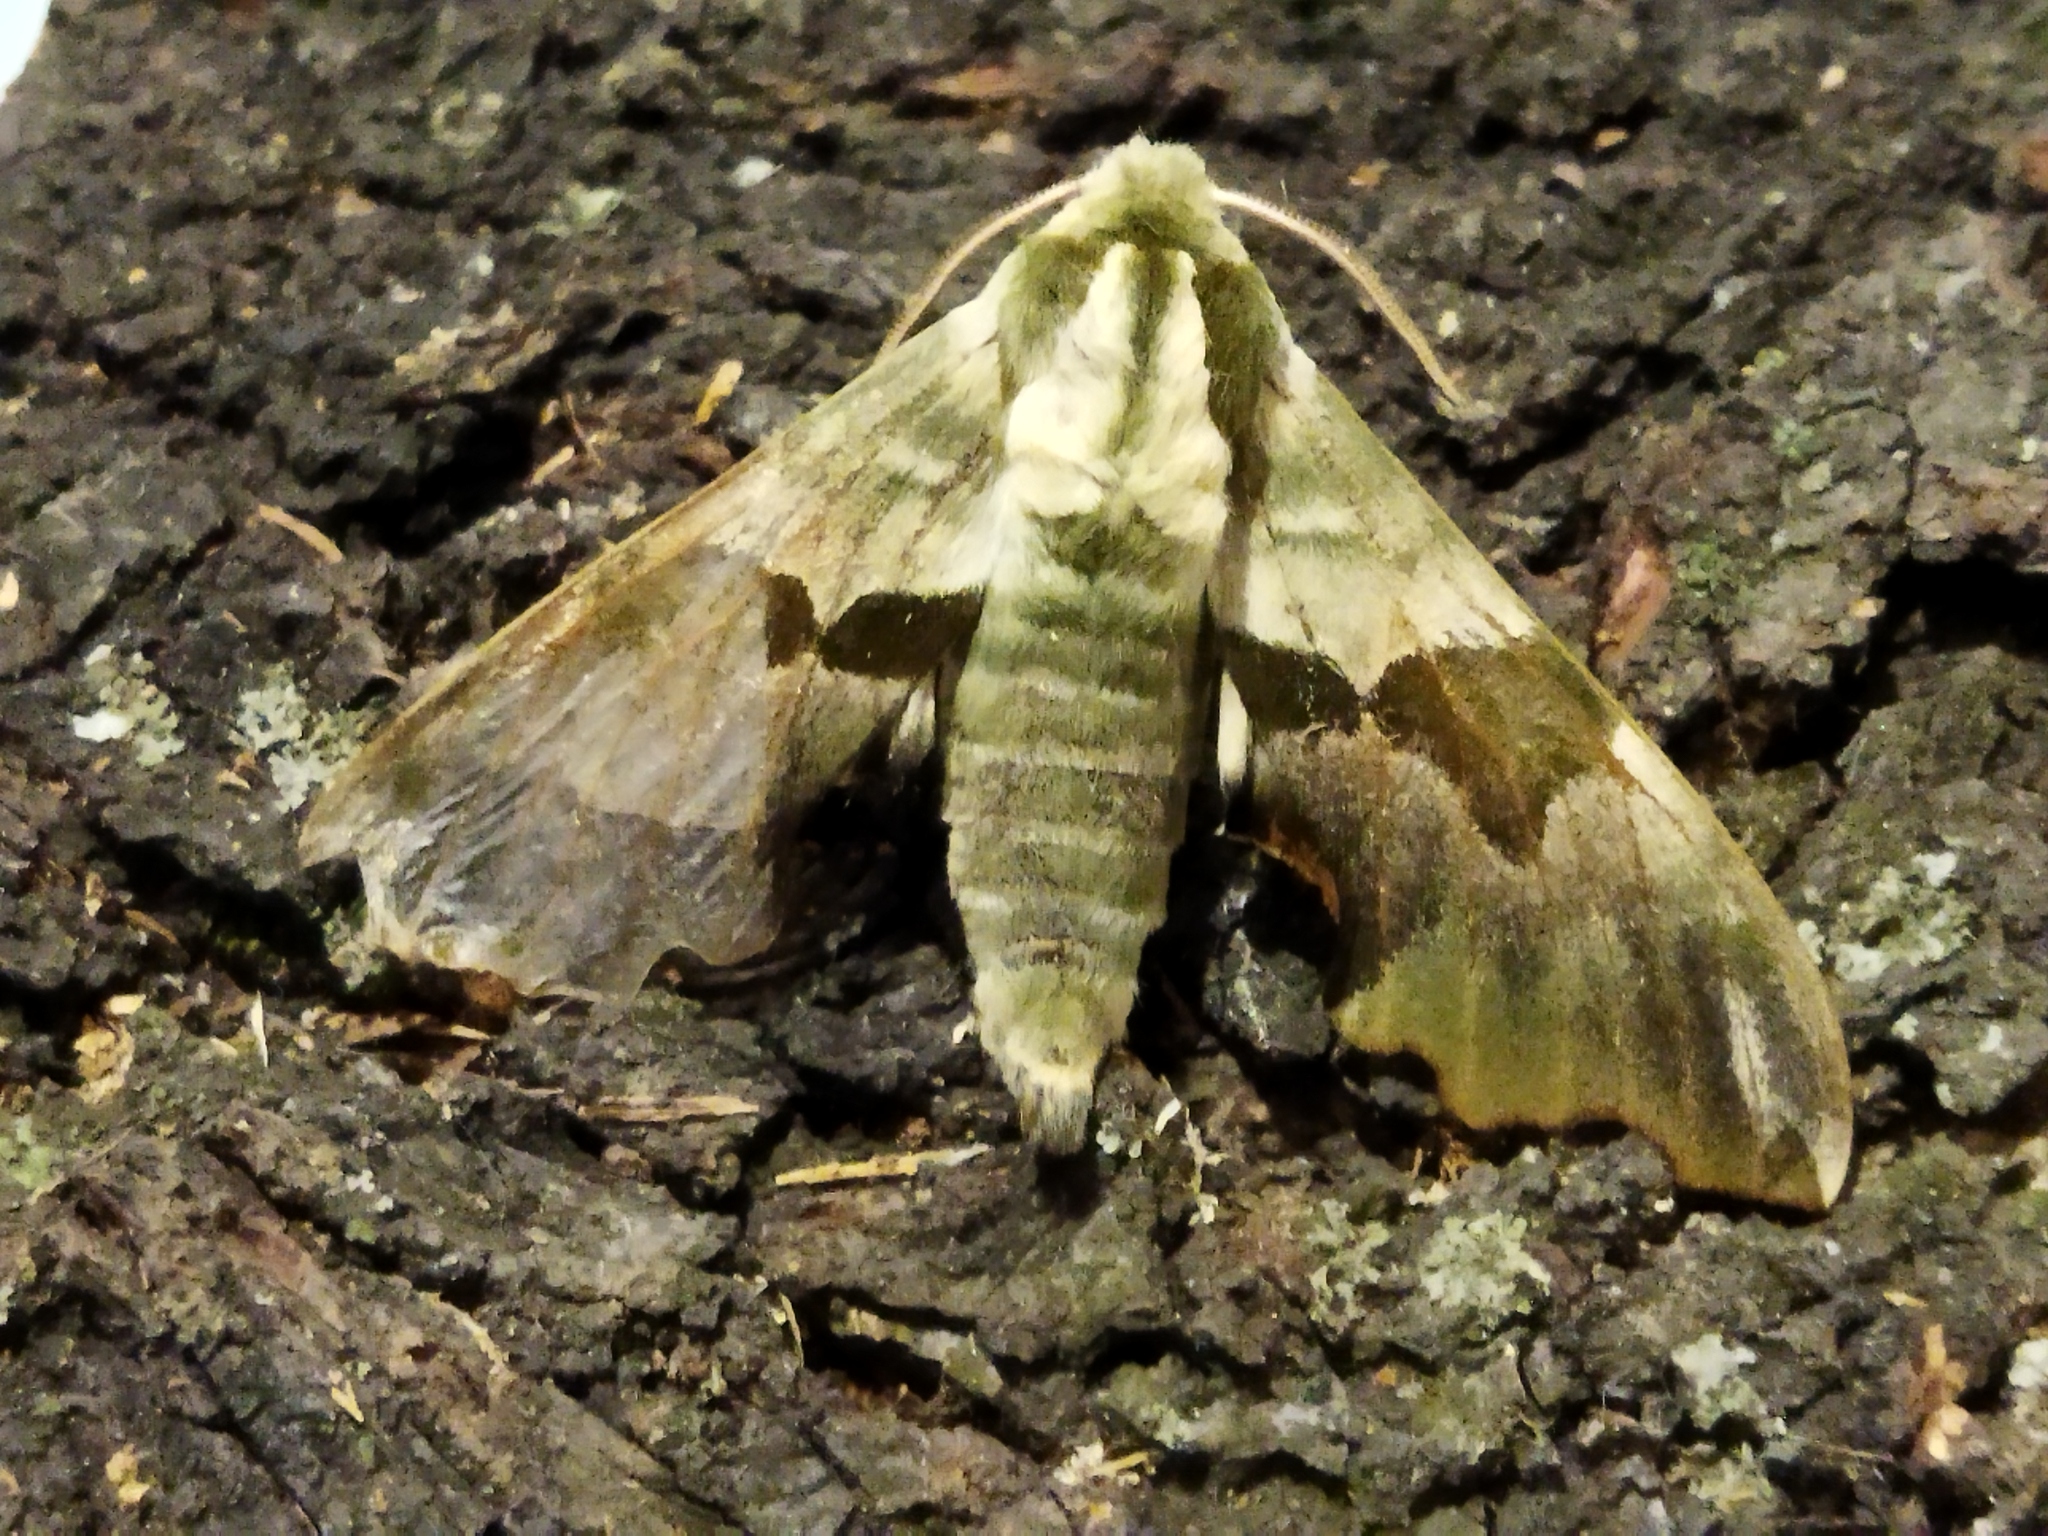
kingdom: Animalia
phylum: Arthropoda
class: Insecta
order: Lepidoptera
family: Sphingidae
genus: Mimas
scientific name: Mimas tiliae
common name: Lime hawk-moth
